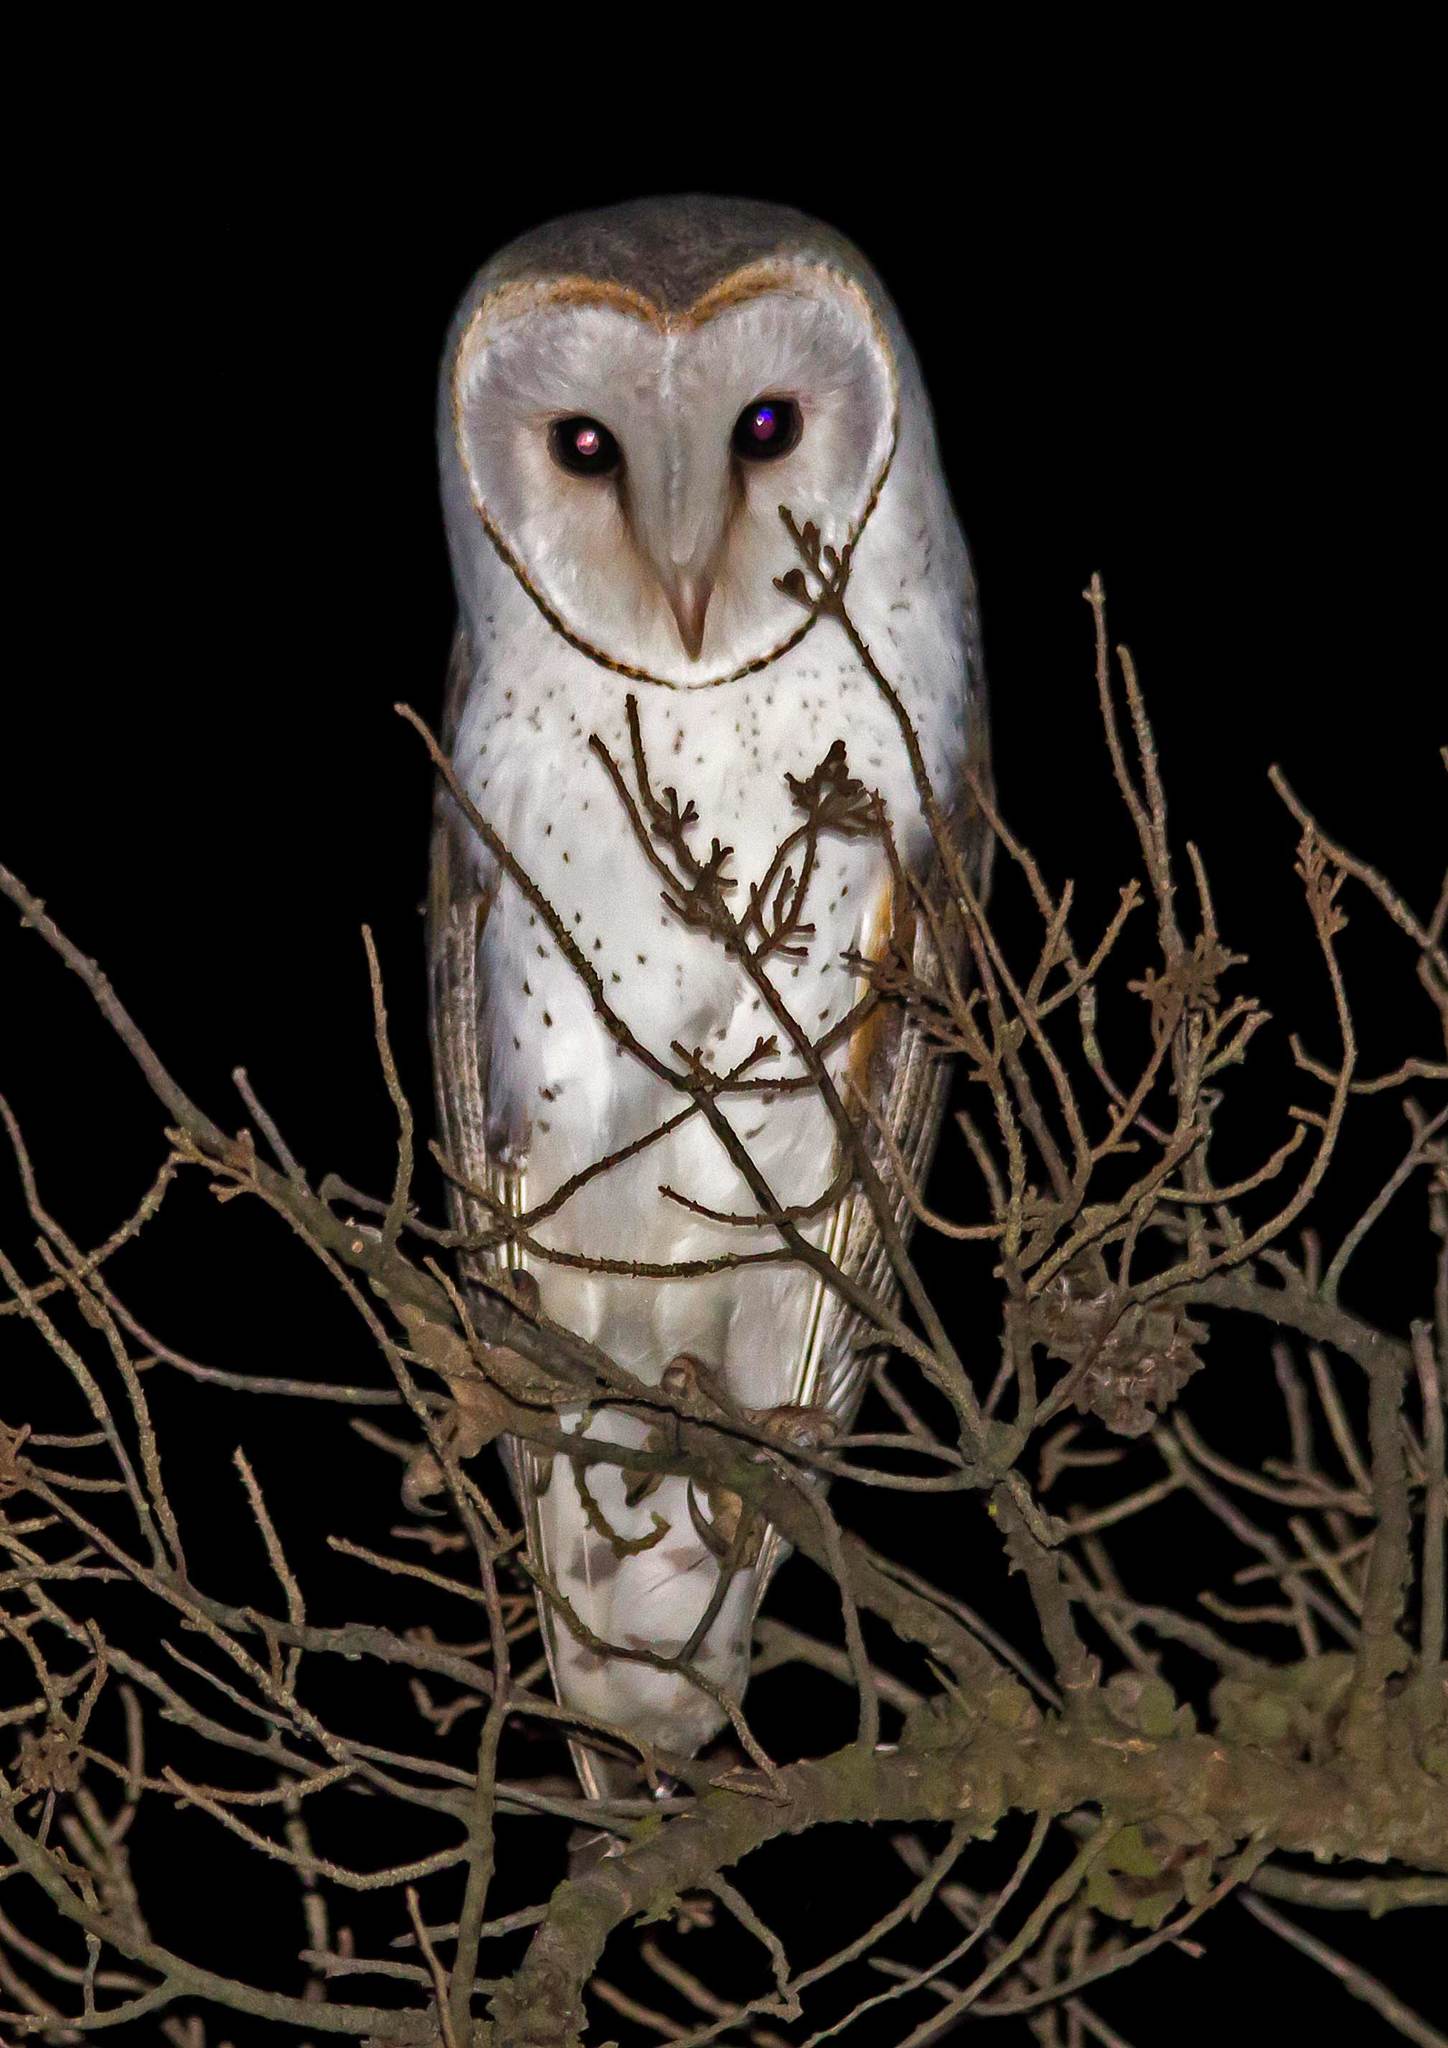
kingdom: Animalia
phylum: Chordata
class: Aves
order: Strigiformes
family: Tytonidae
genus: Tyto
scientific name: Tyto alba
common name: Barn owl
